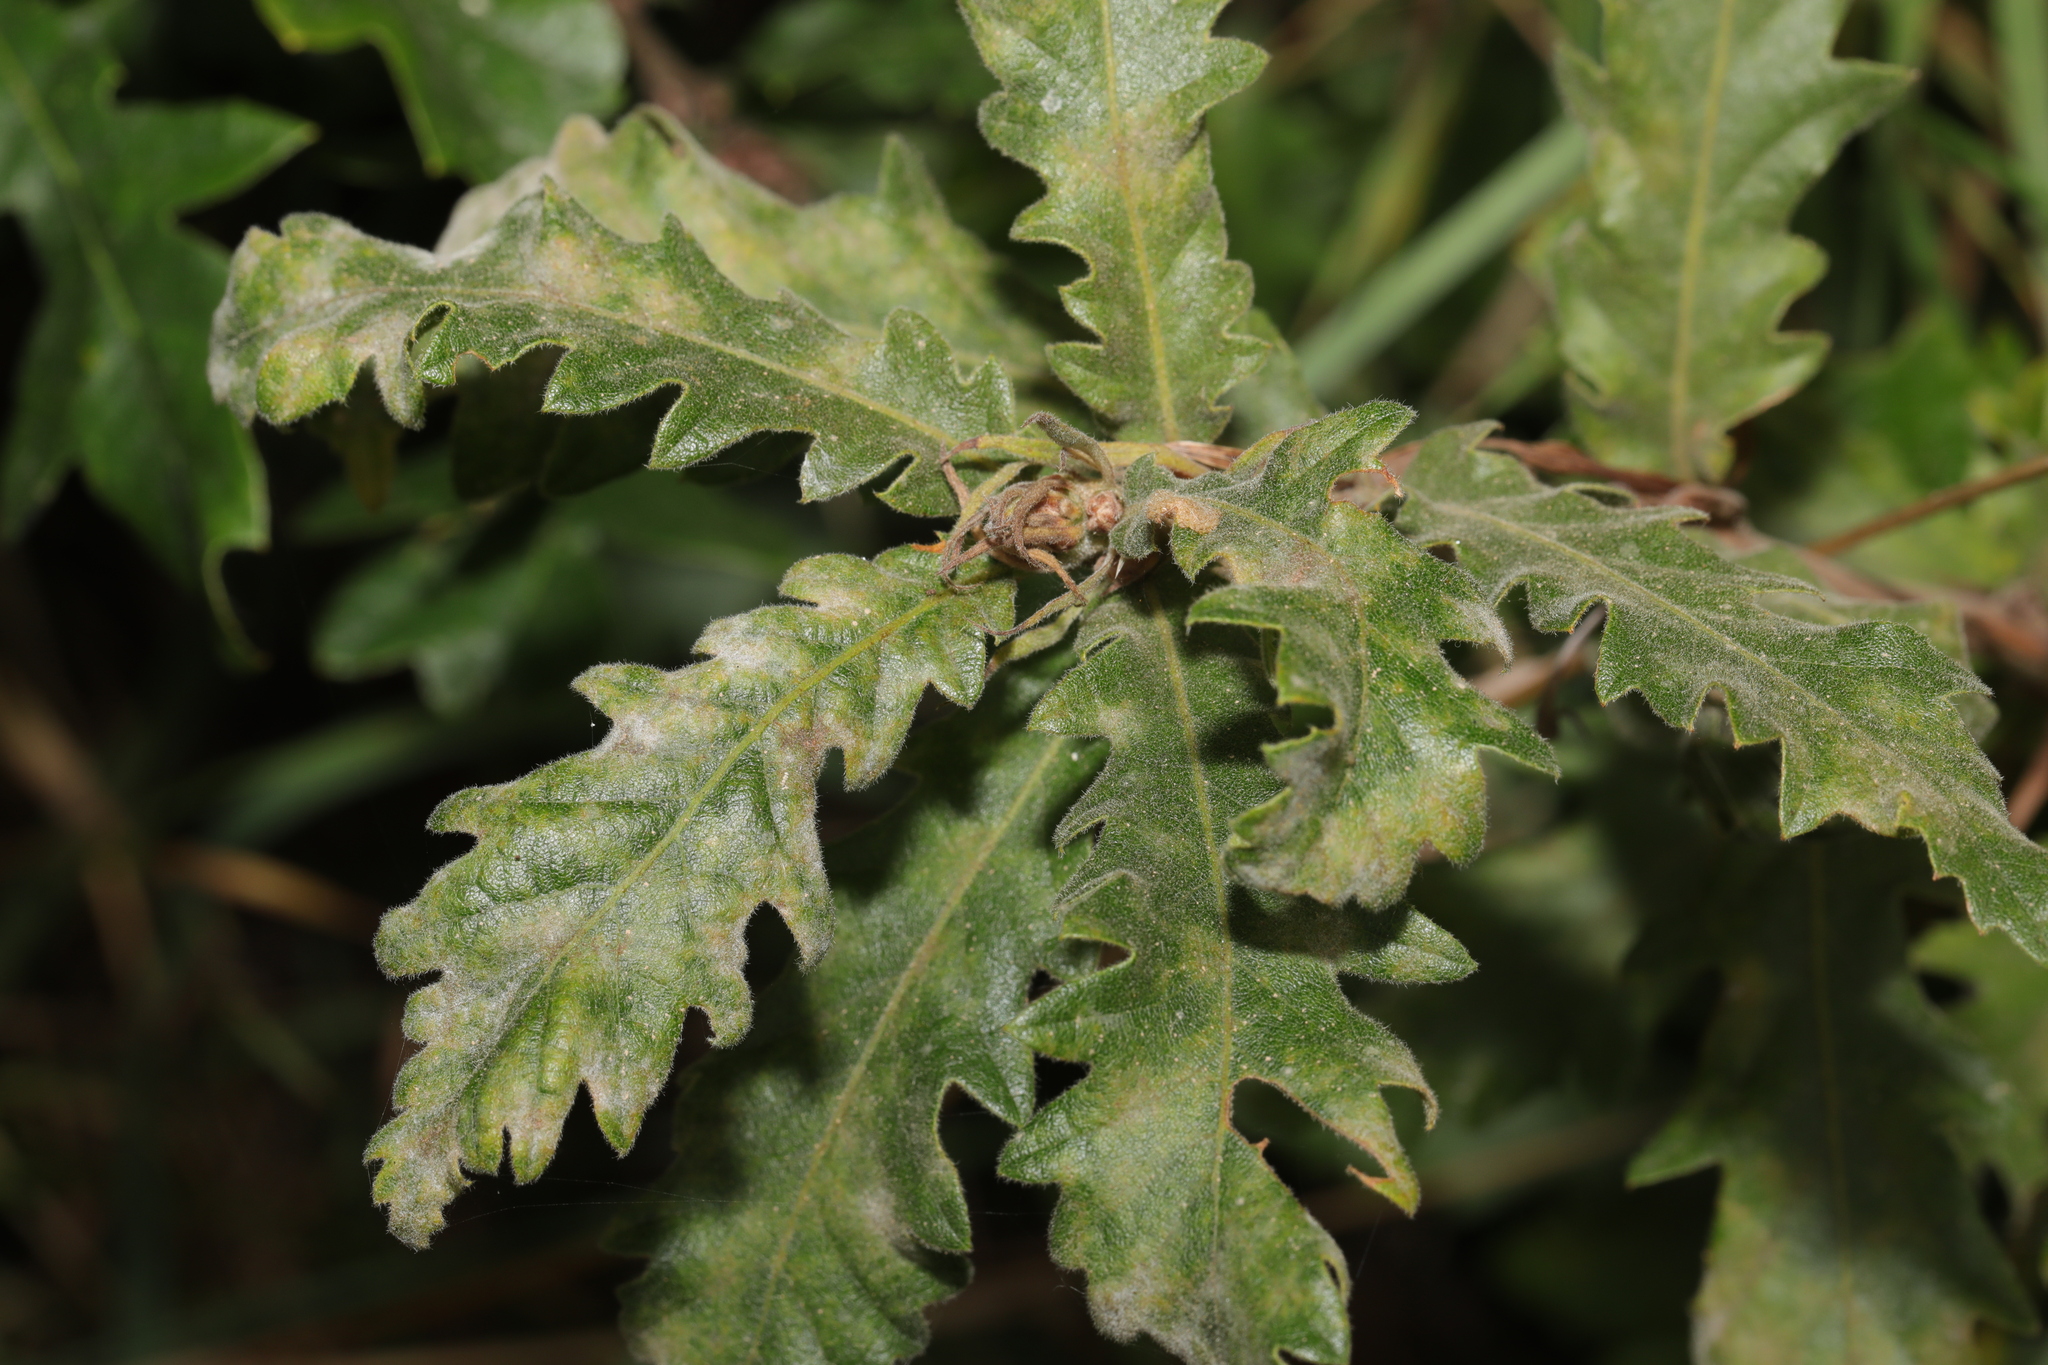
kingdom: Fungi
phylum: Ascomycota
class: Leotiomycetes
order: Helotiales
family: Erysiphaceae
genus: Erysiphe
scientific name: Erysiphe alphitoides
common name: Oak mildew
